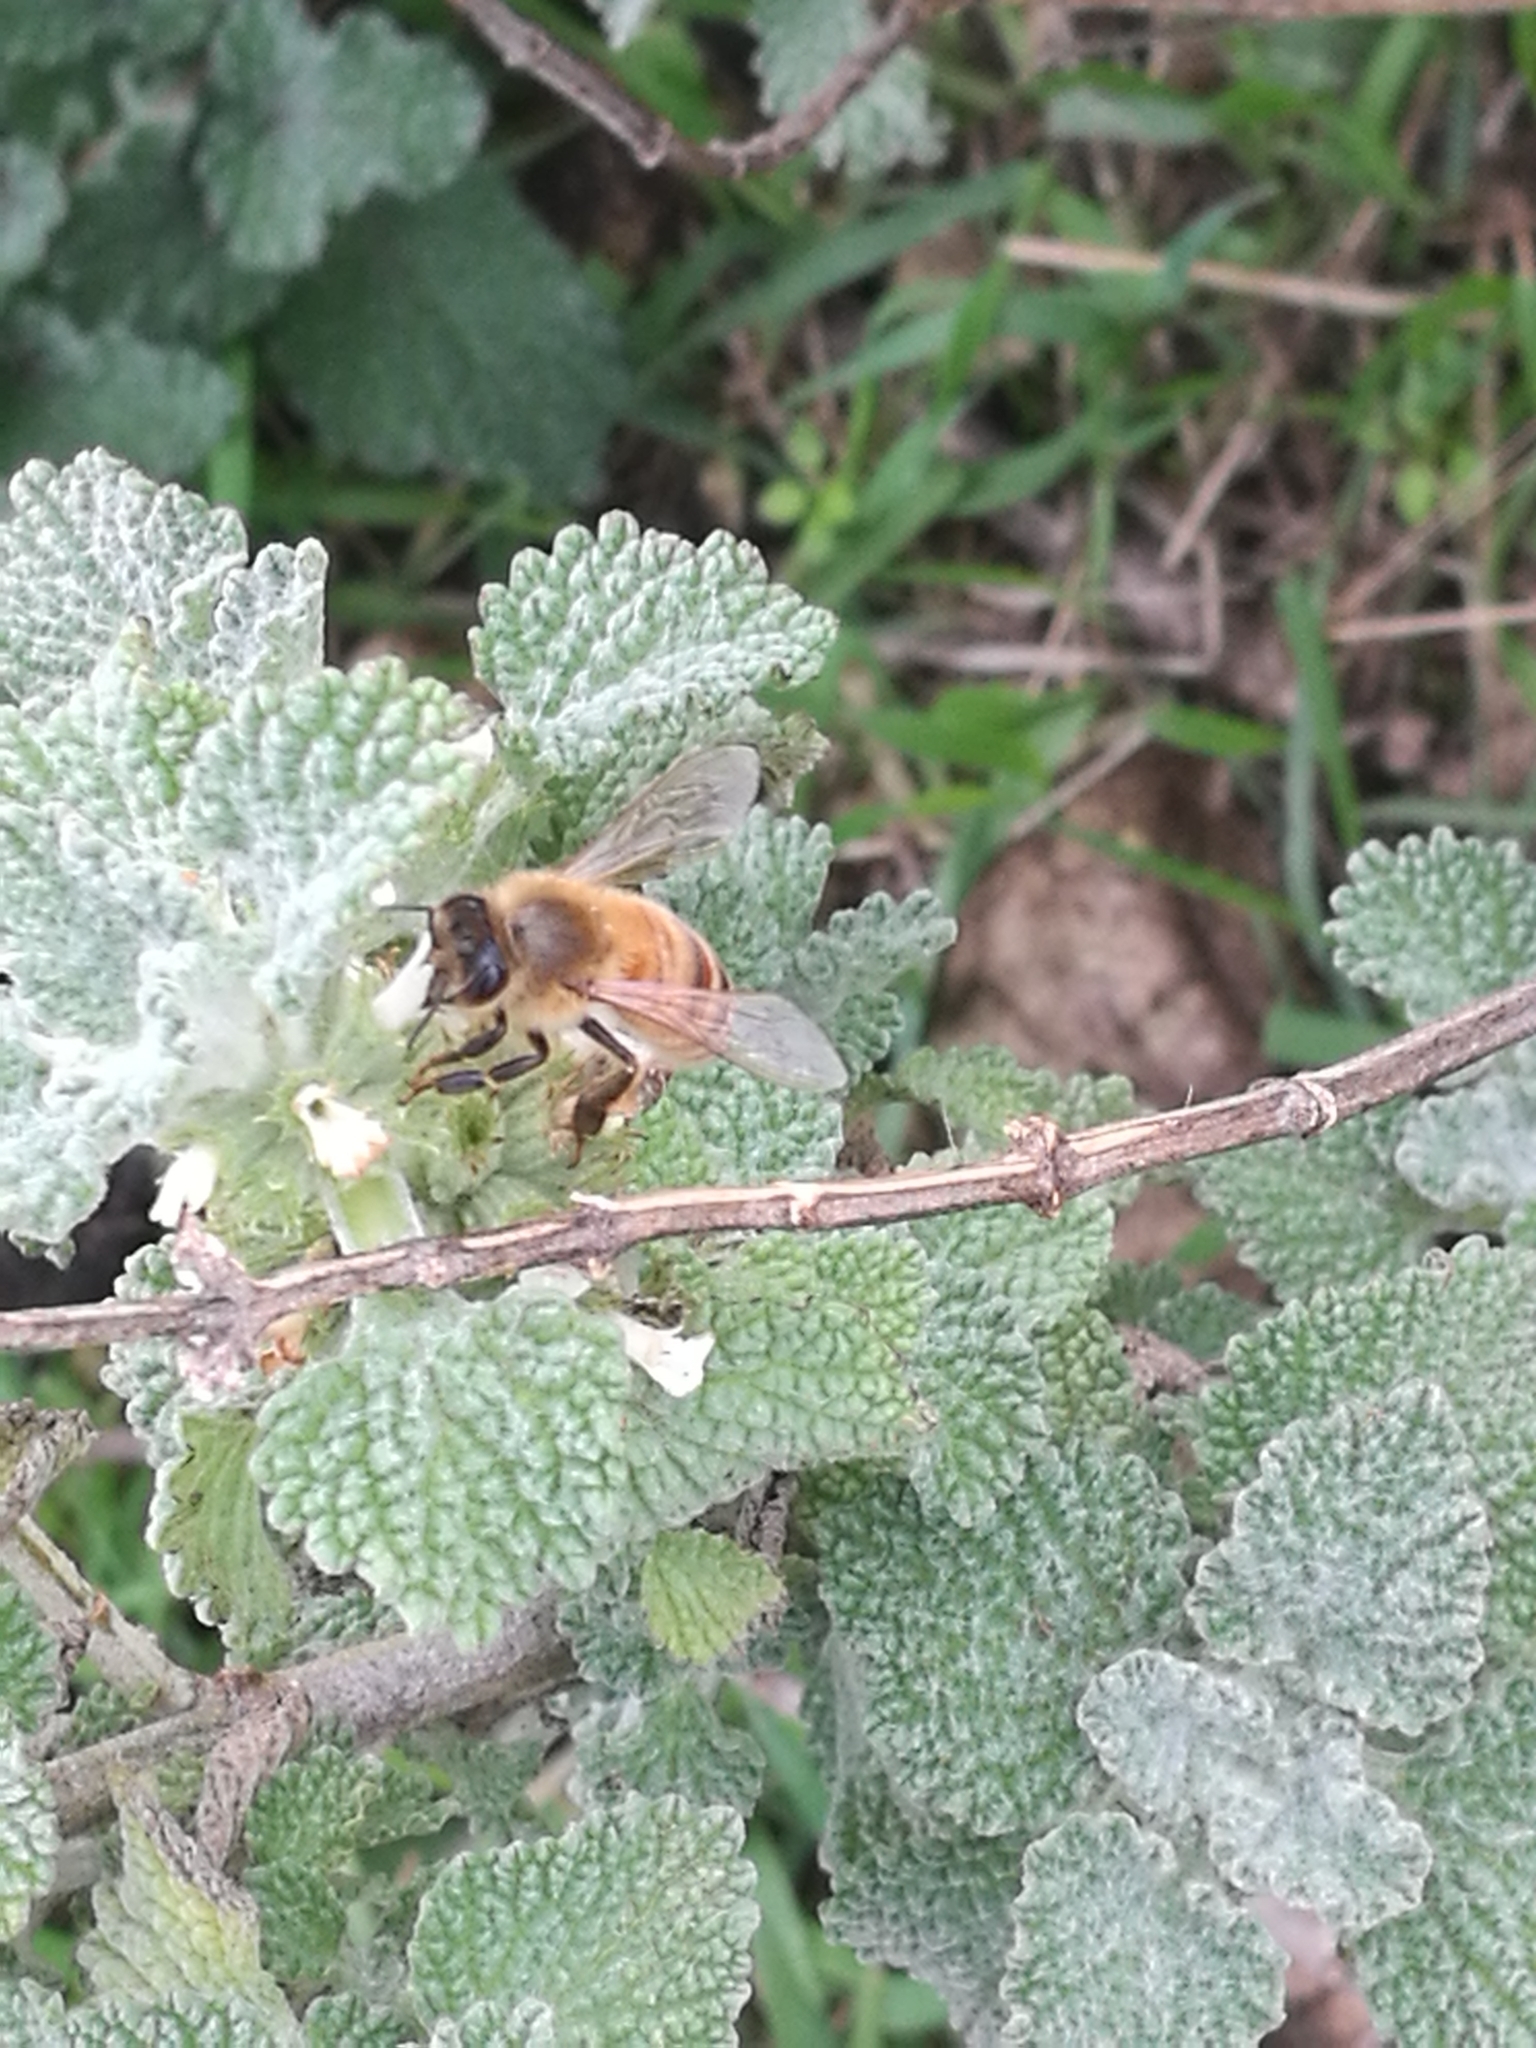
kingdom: Animalia
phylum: Arthropoda
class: Insecta
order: Hymenoptera
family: Apidae
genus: Apis
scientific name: Apis mellifera
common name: Honey bee
